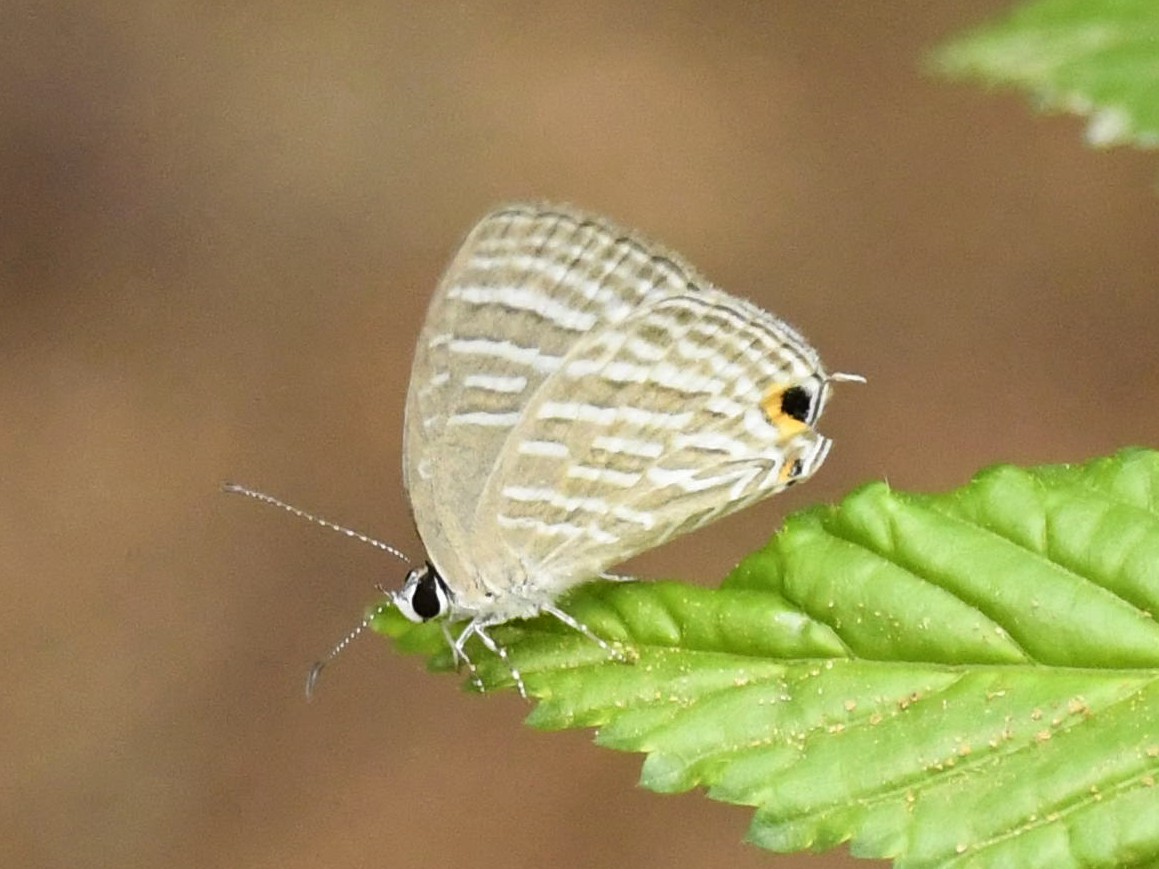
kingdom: Animalia
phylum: Arthropoda
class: Insecta
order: Lepidoptera
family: Lycaenidae
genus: Jamides
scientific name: Jamides celeno
